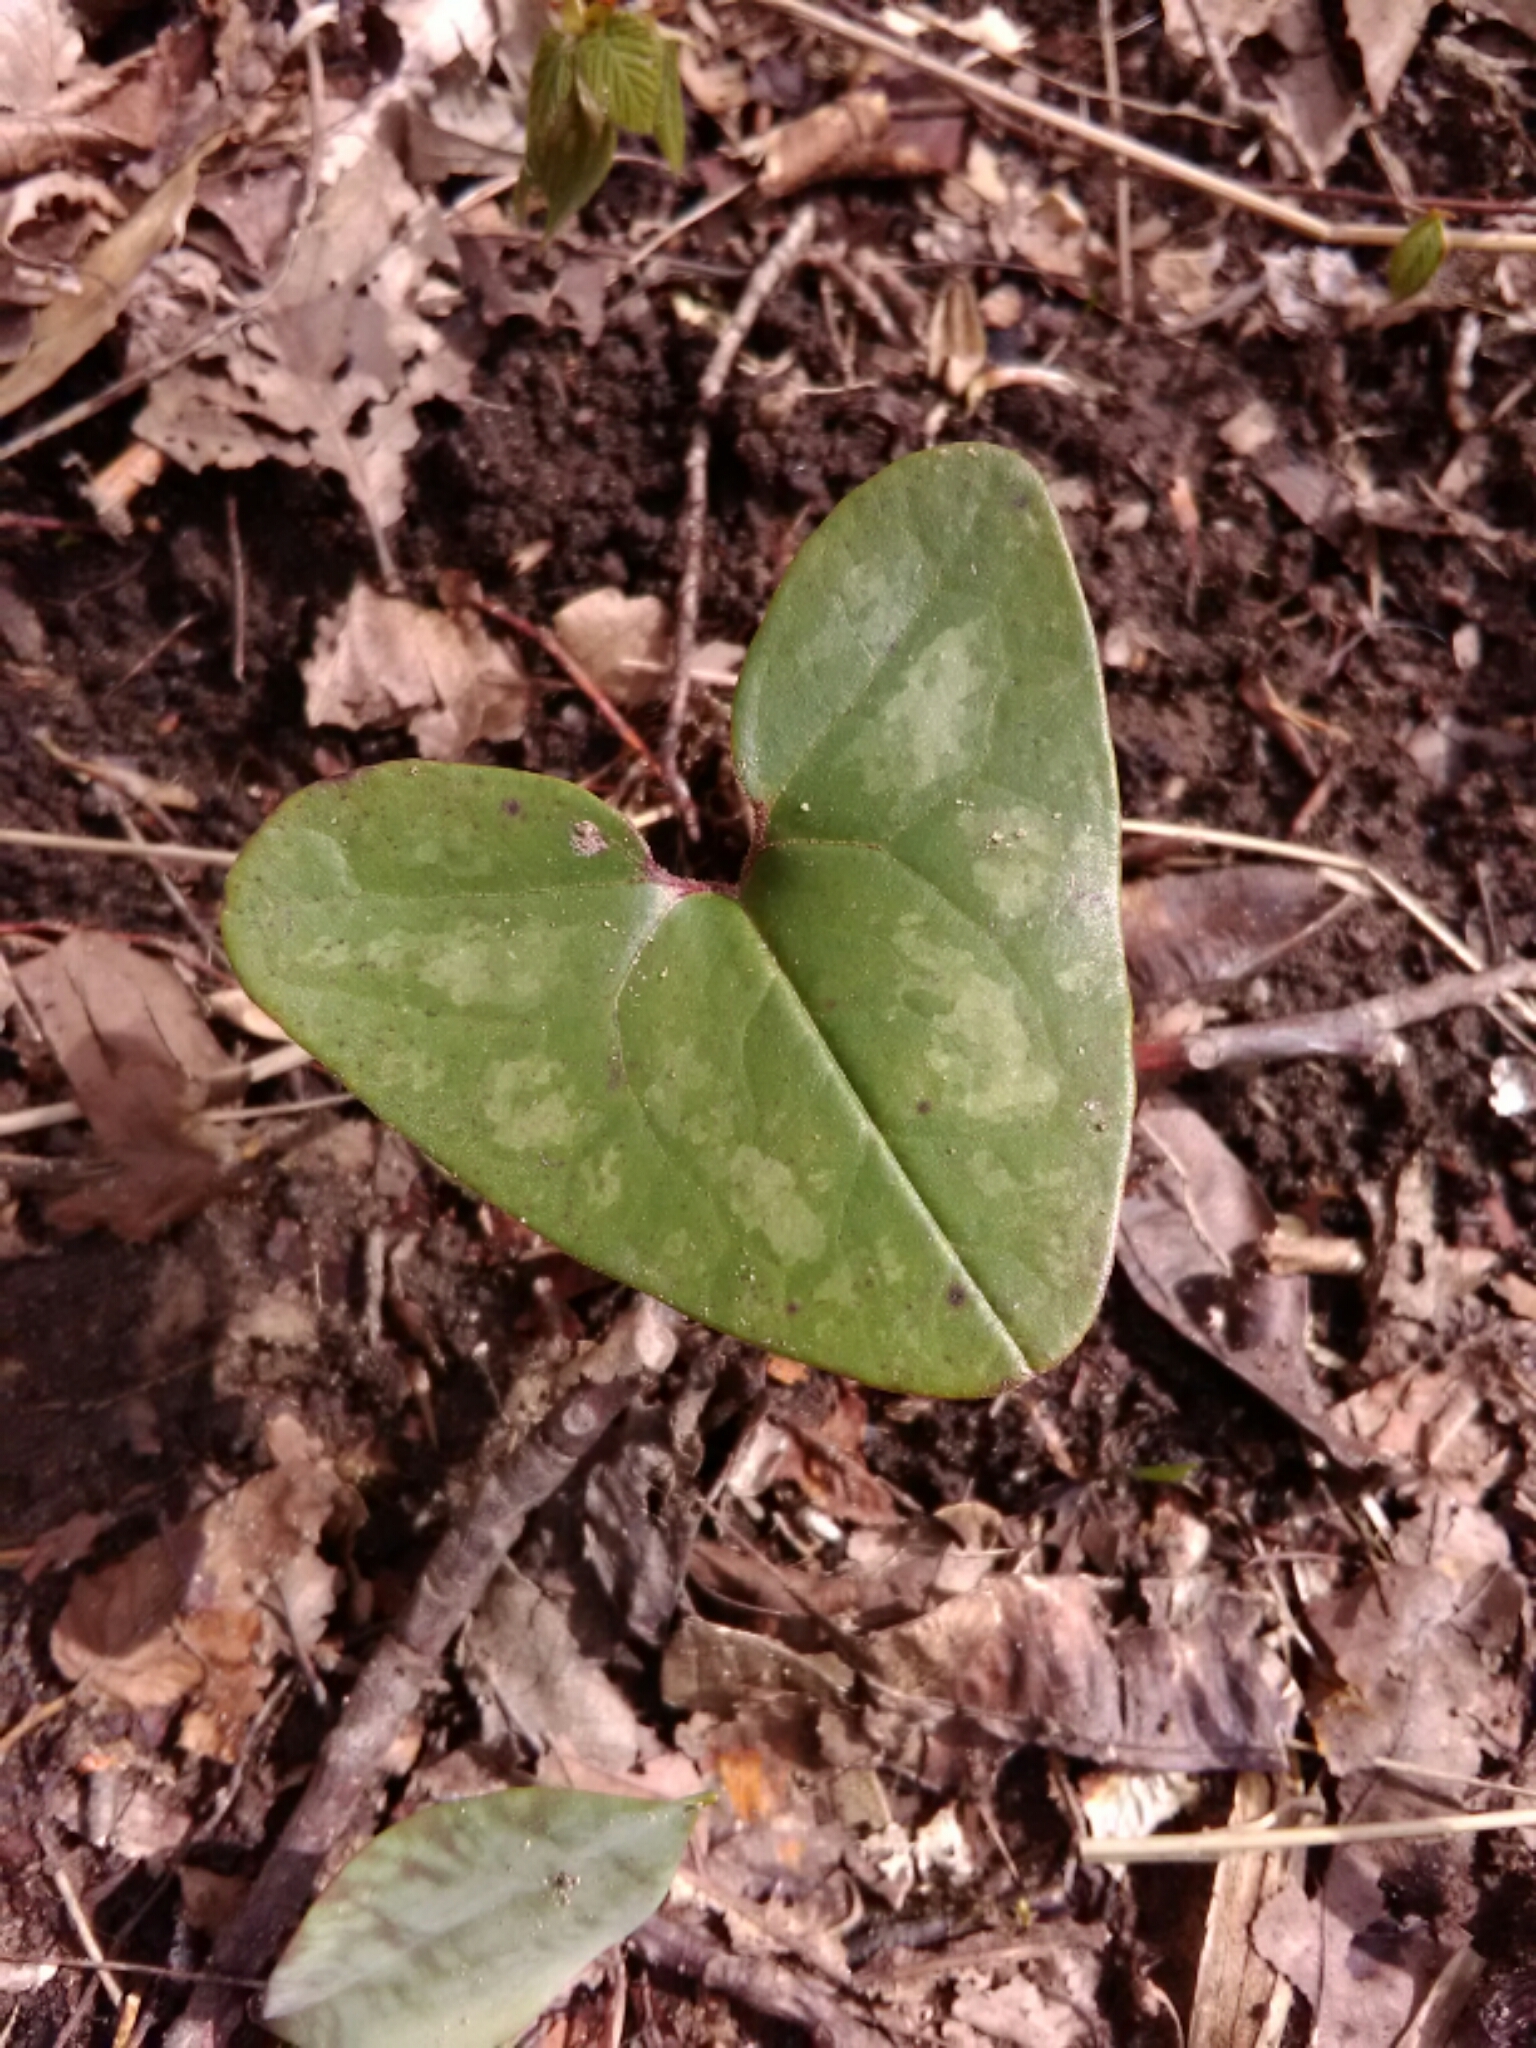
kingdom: Plantae
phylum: Tracheophyta
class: Magnoliopsida
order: Piperales
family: Aristolochiaceae
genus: Hexastylis
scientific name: Hexastylis arifolia
